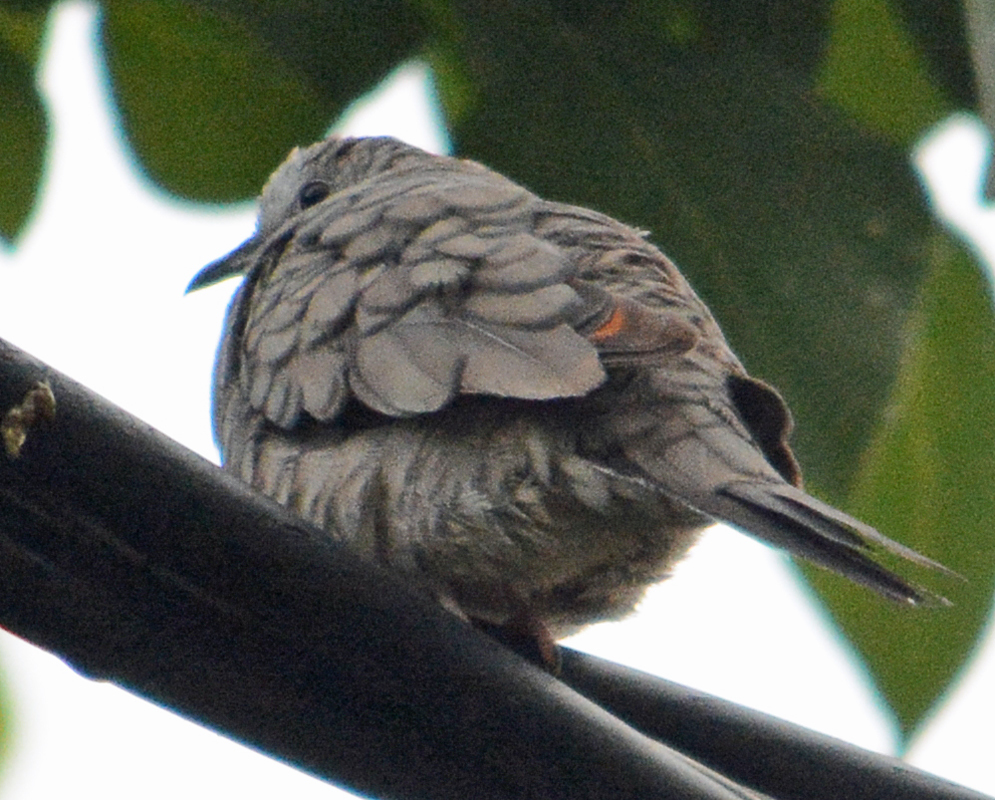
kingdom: Animalia
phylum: Chordata
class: Aves
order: Columbiformes
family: Columbidae
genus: Columbina
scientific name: Columbina inca
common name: Inca dove
